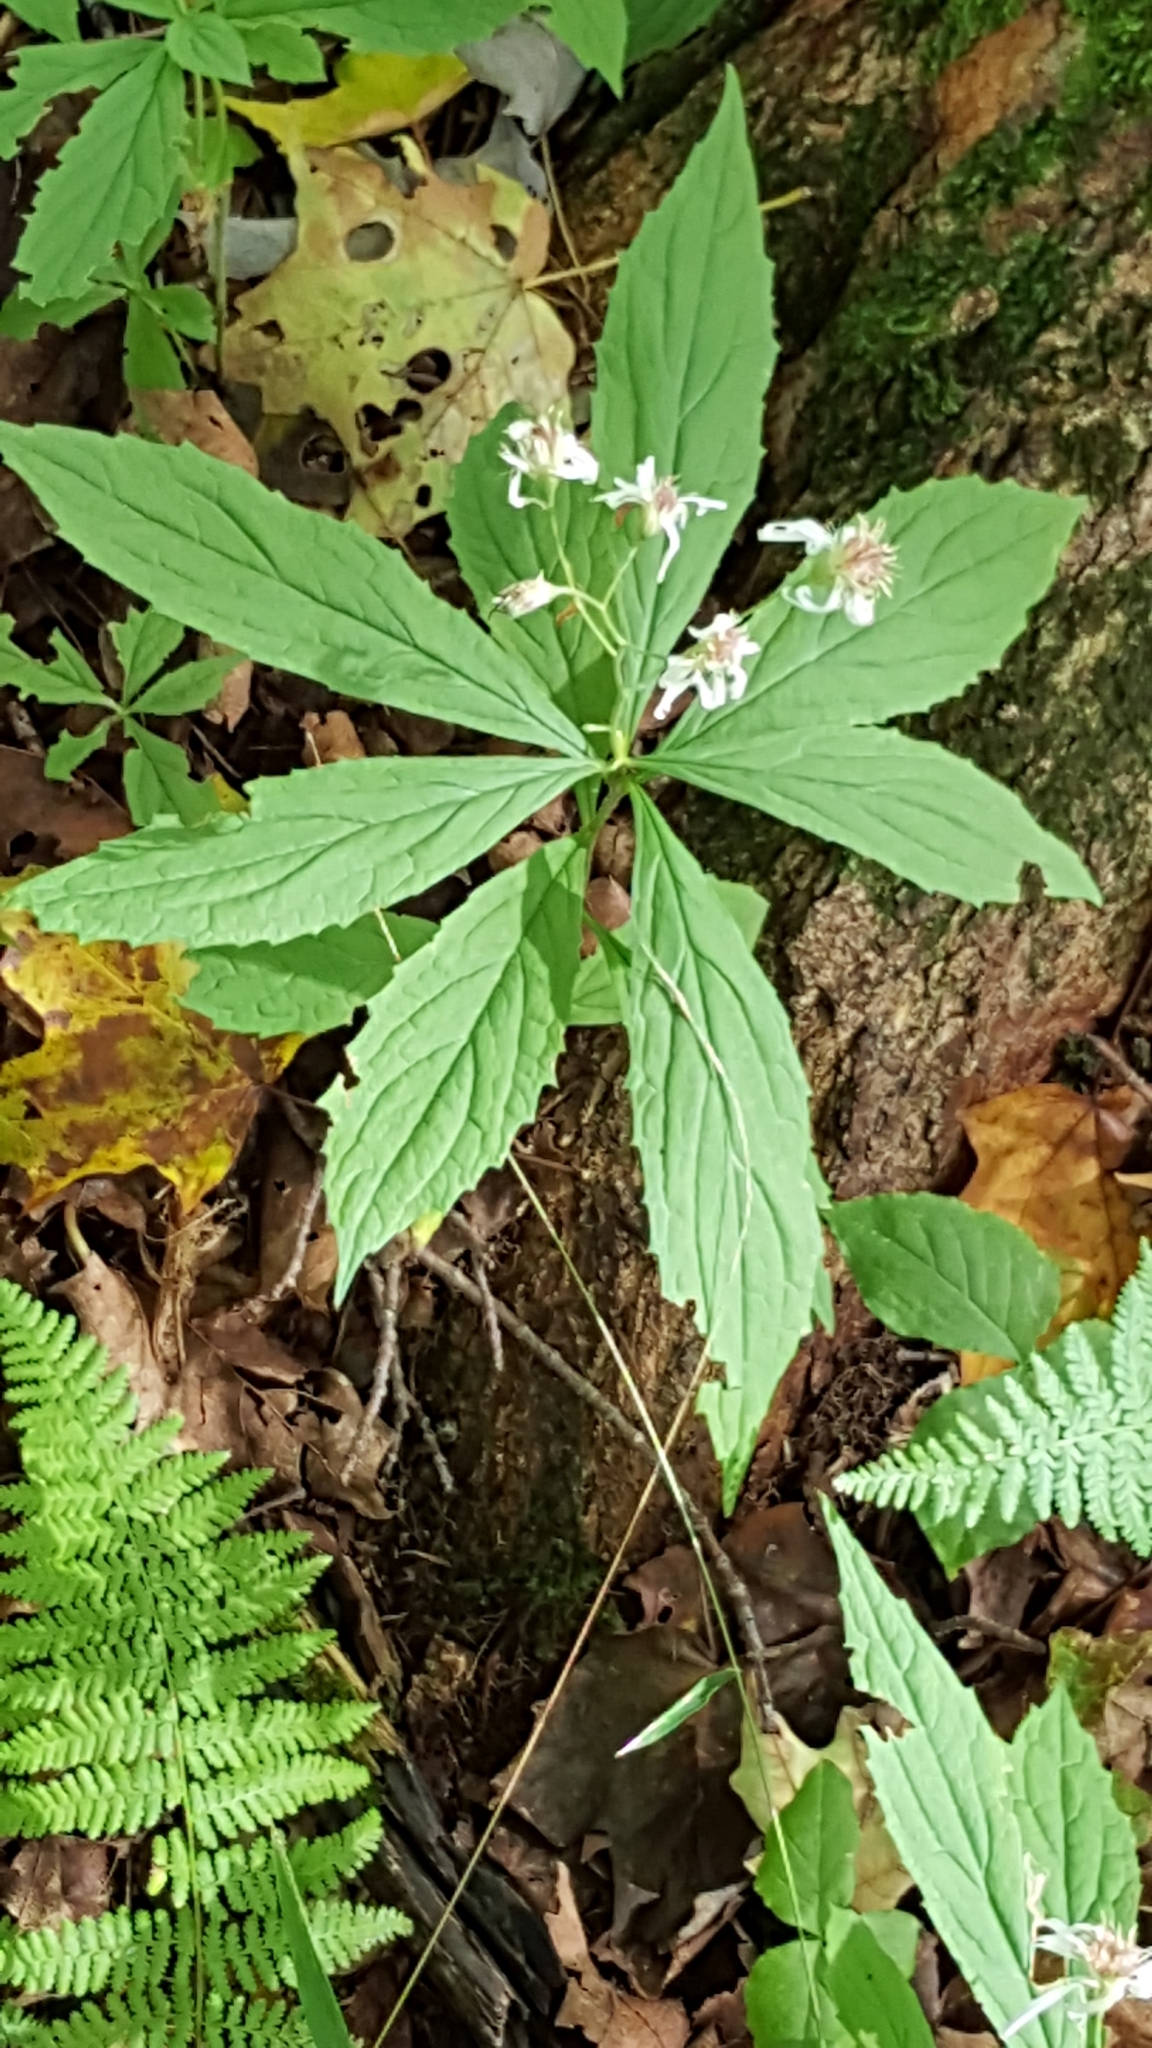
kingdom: Plantae
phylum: Tracheophyta
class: Magnoliopsida
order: Asterales
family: Asteraceae
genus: Oclemena
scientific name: Oclemena acuminata
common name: Mountain aster
